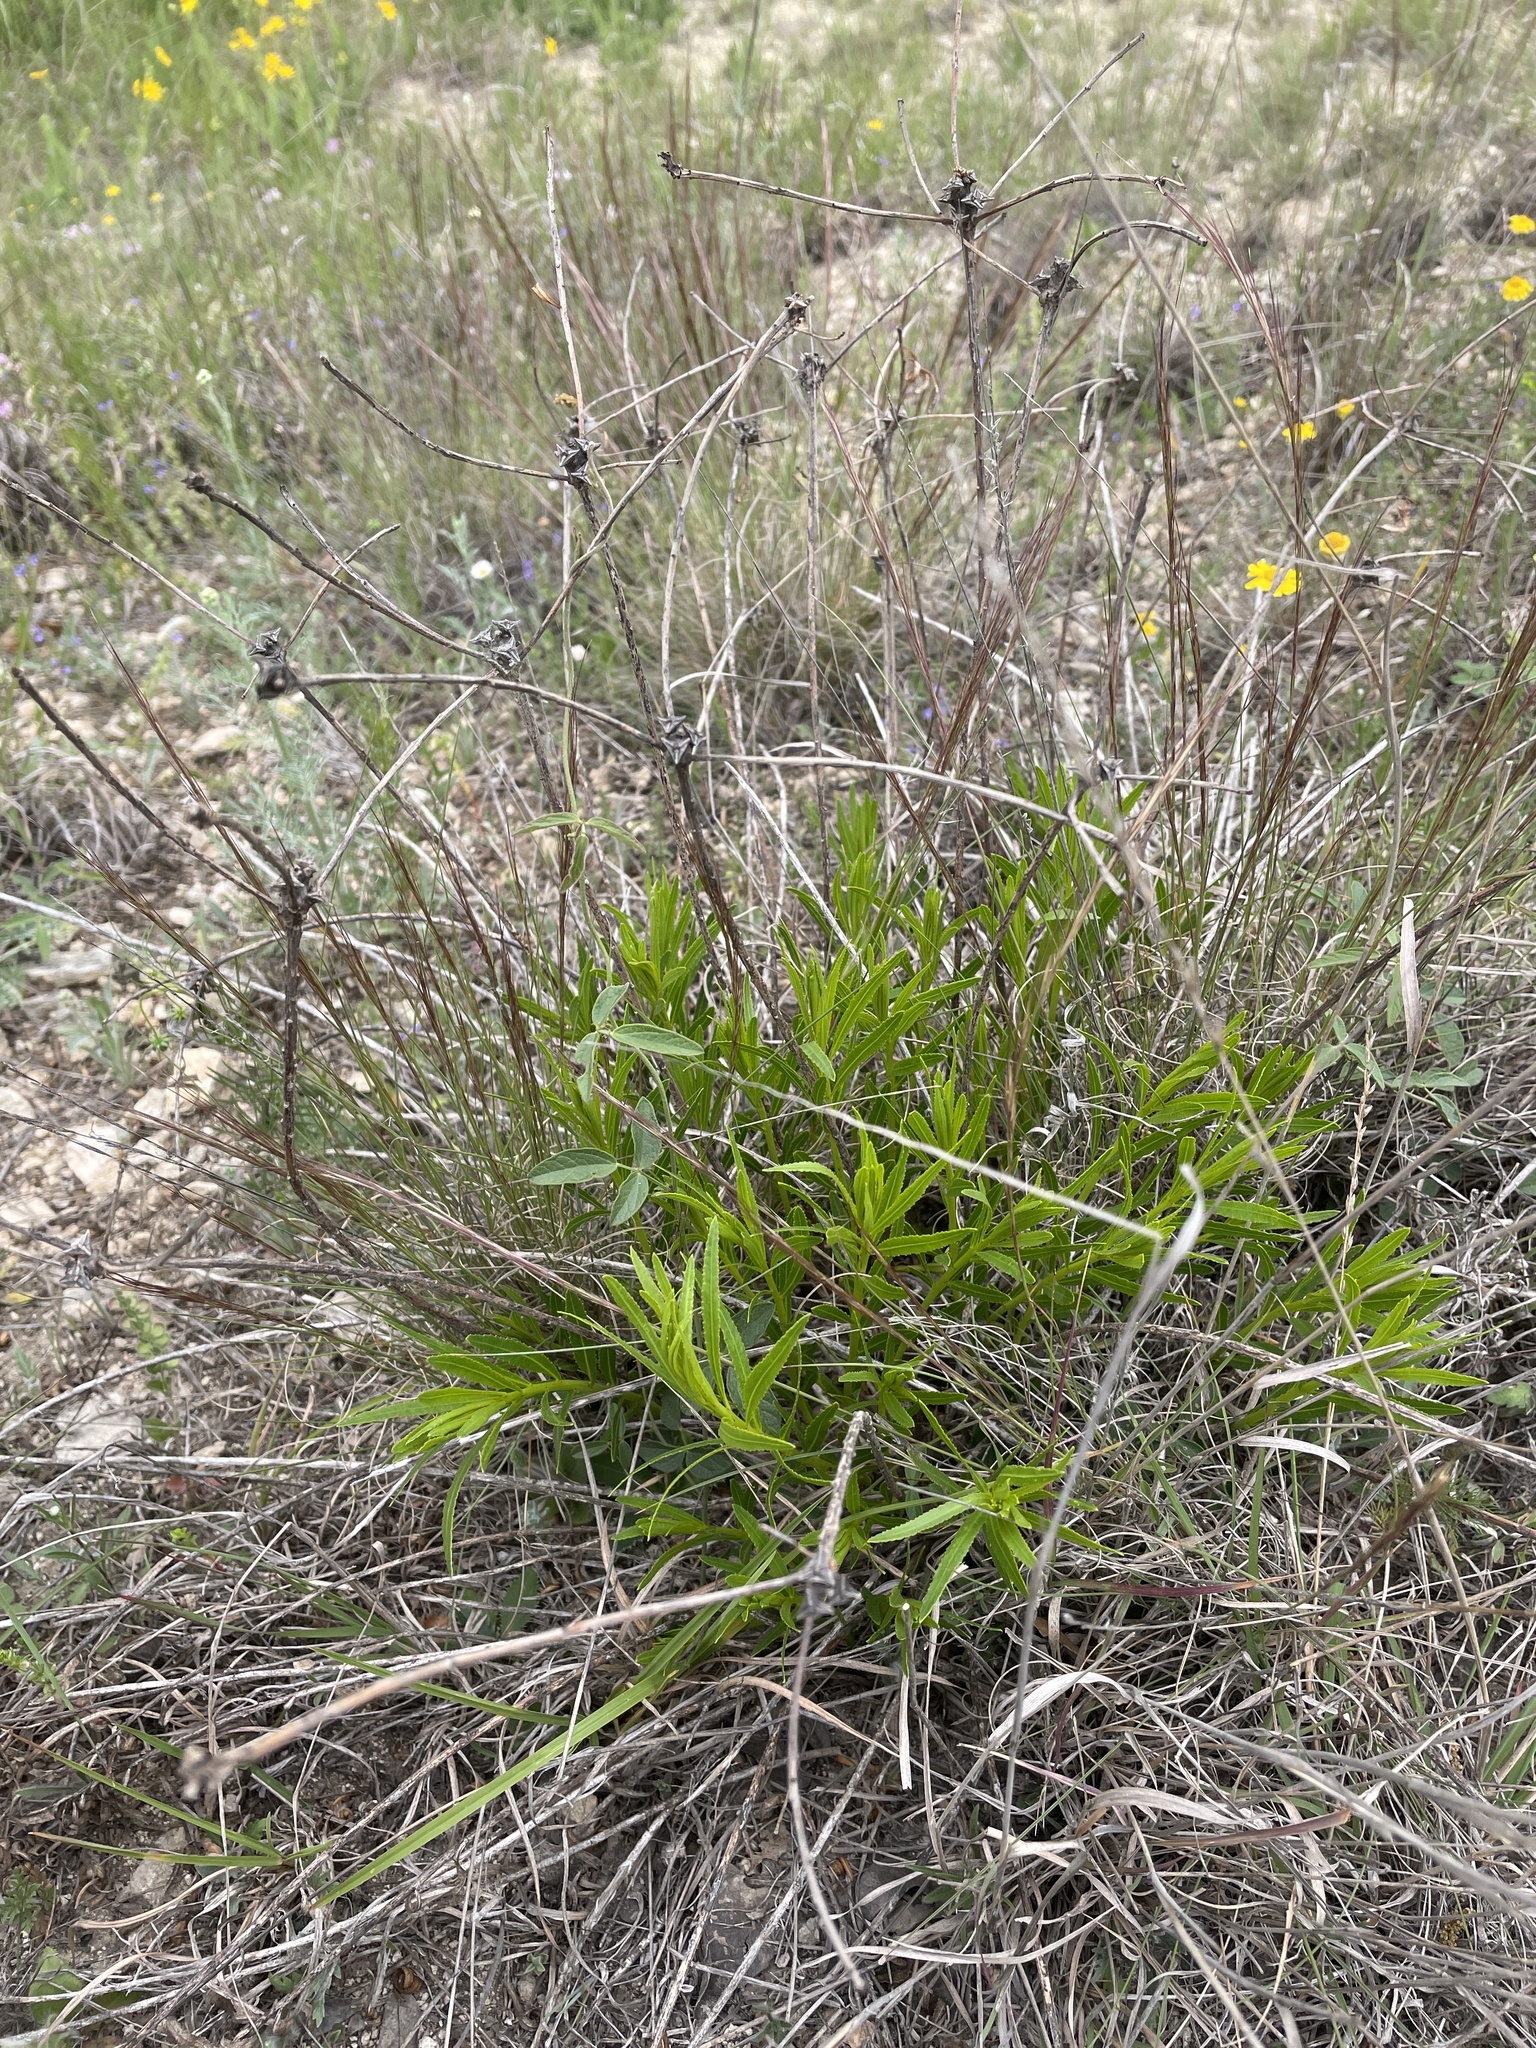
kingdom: Plantae
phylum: Tracheophyta
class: Magnoliopsida
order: Malpighiales
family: Euphorbiaceae
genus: Stillingia
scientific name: Stillingia texana
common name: Texas stillingia
